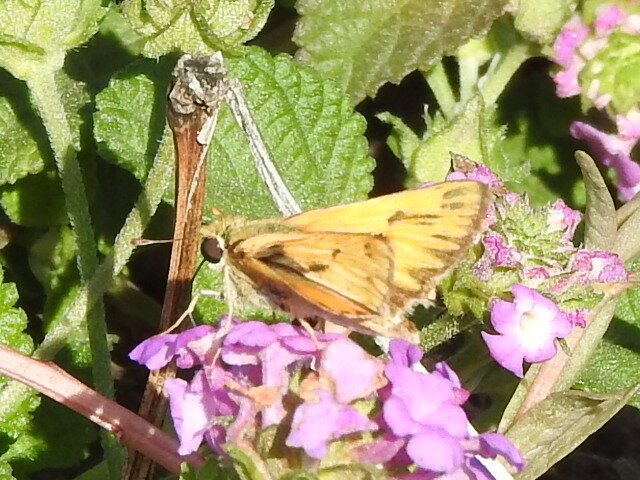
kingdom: Animalia
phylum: Arthropoda
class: Insecta
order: Lepidoptera
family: Hesperiidae
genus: Hylephila
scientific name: Hylephila phyleus
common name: Fiery skipper
